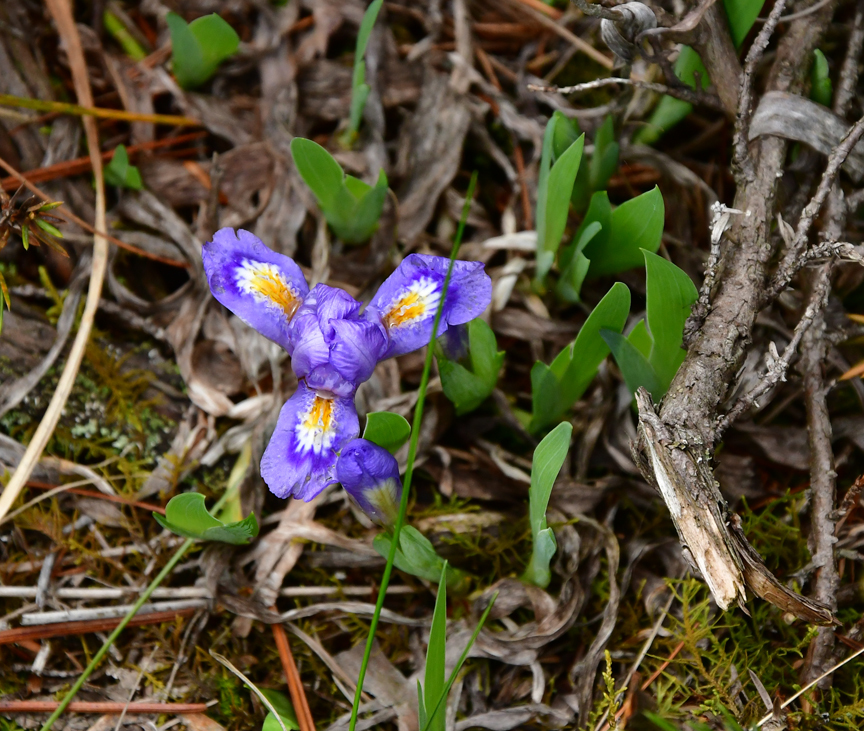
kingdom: Plantae
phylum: Tracheophyta
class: Liliopsida
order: Asparagales
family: Iridaceae
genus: Iris
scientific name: Iris lacustris
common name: Dwarf lake iris
